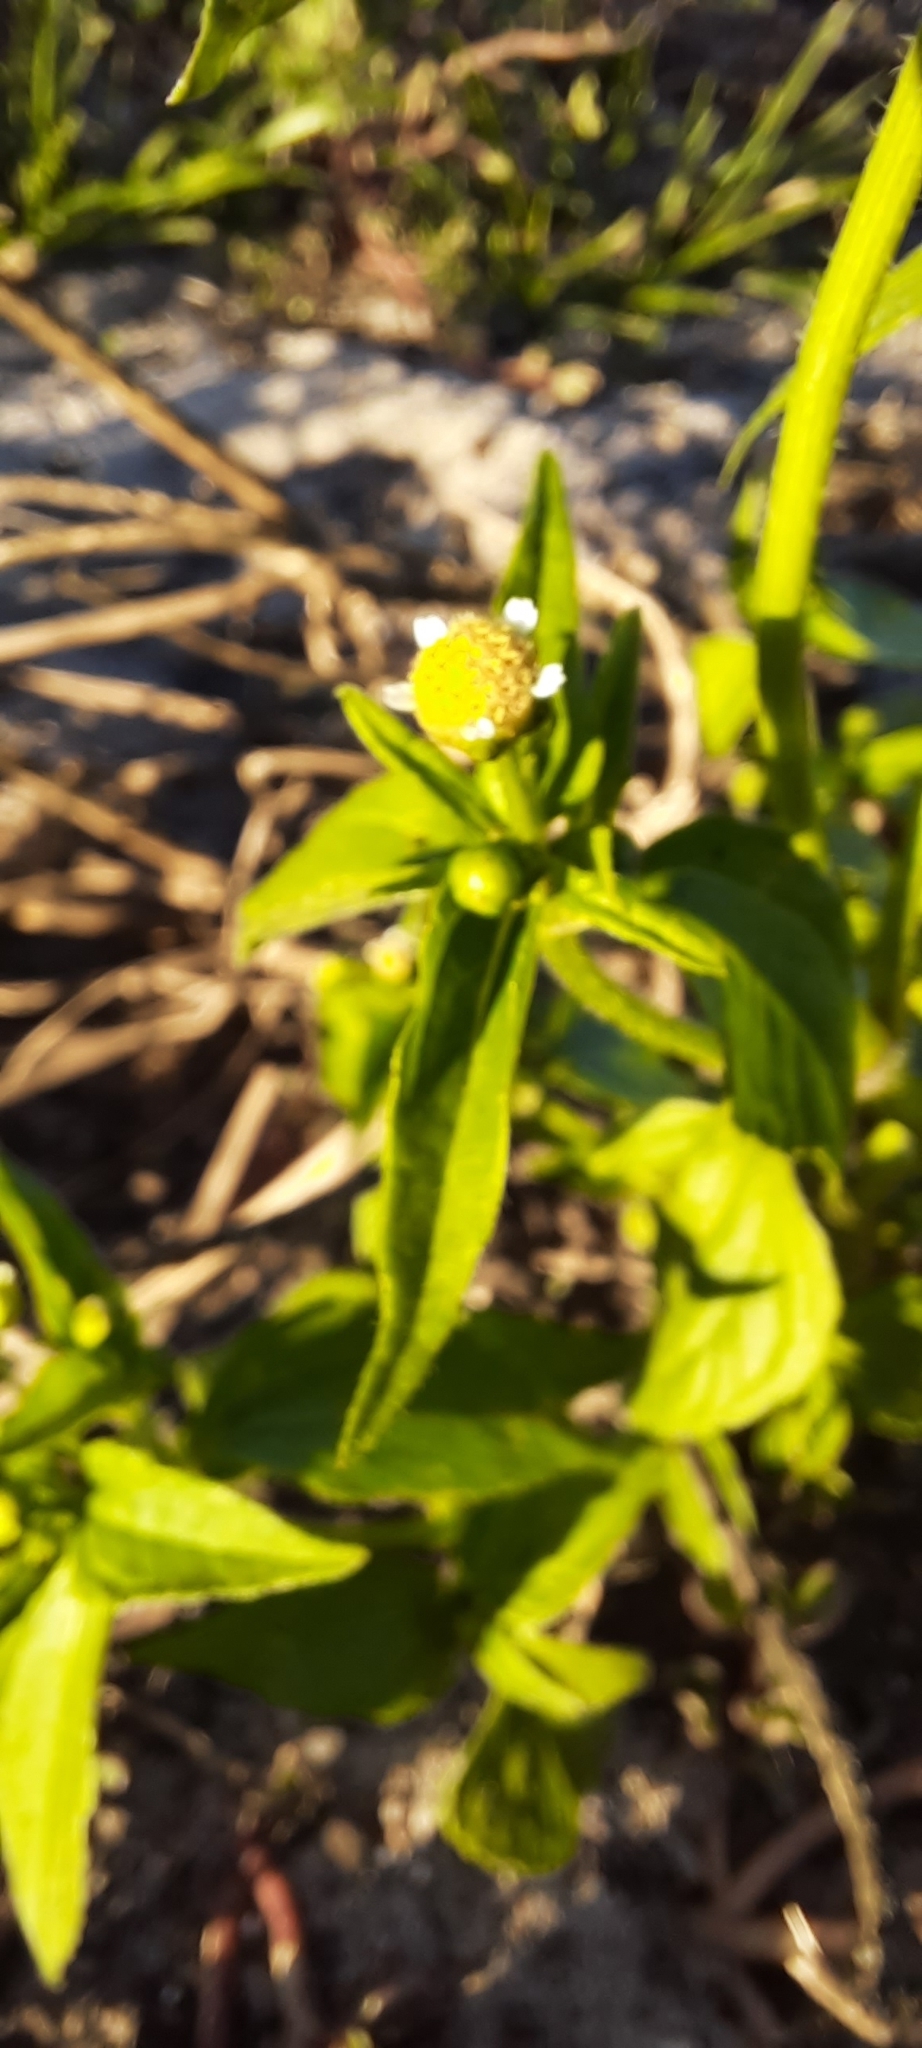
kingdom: Plantae
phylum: Tracheophyta
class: Magnoliopsida
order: Asterales
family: Asteraceae
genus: Galinsoga
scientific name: Galinsoga parviflora
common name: Gallant soldier
